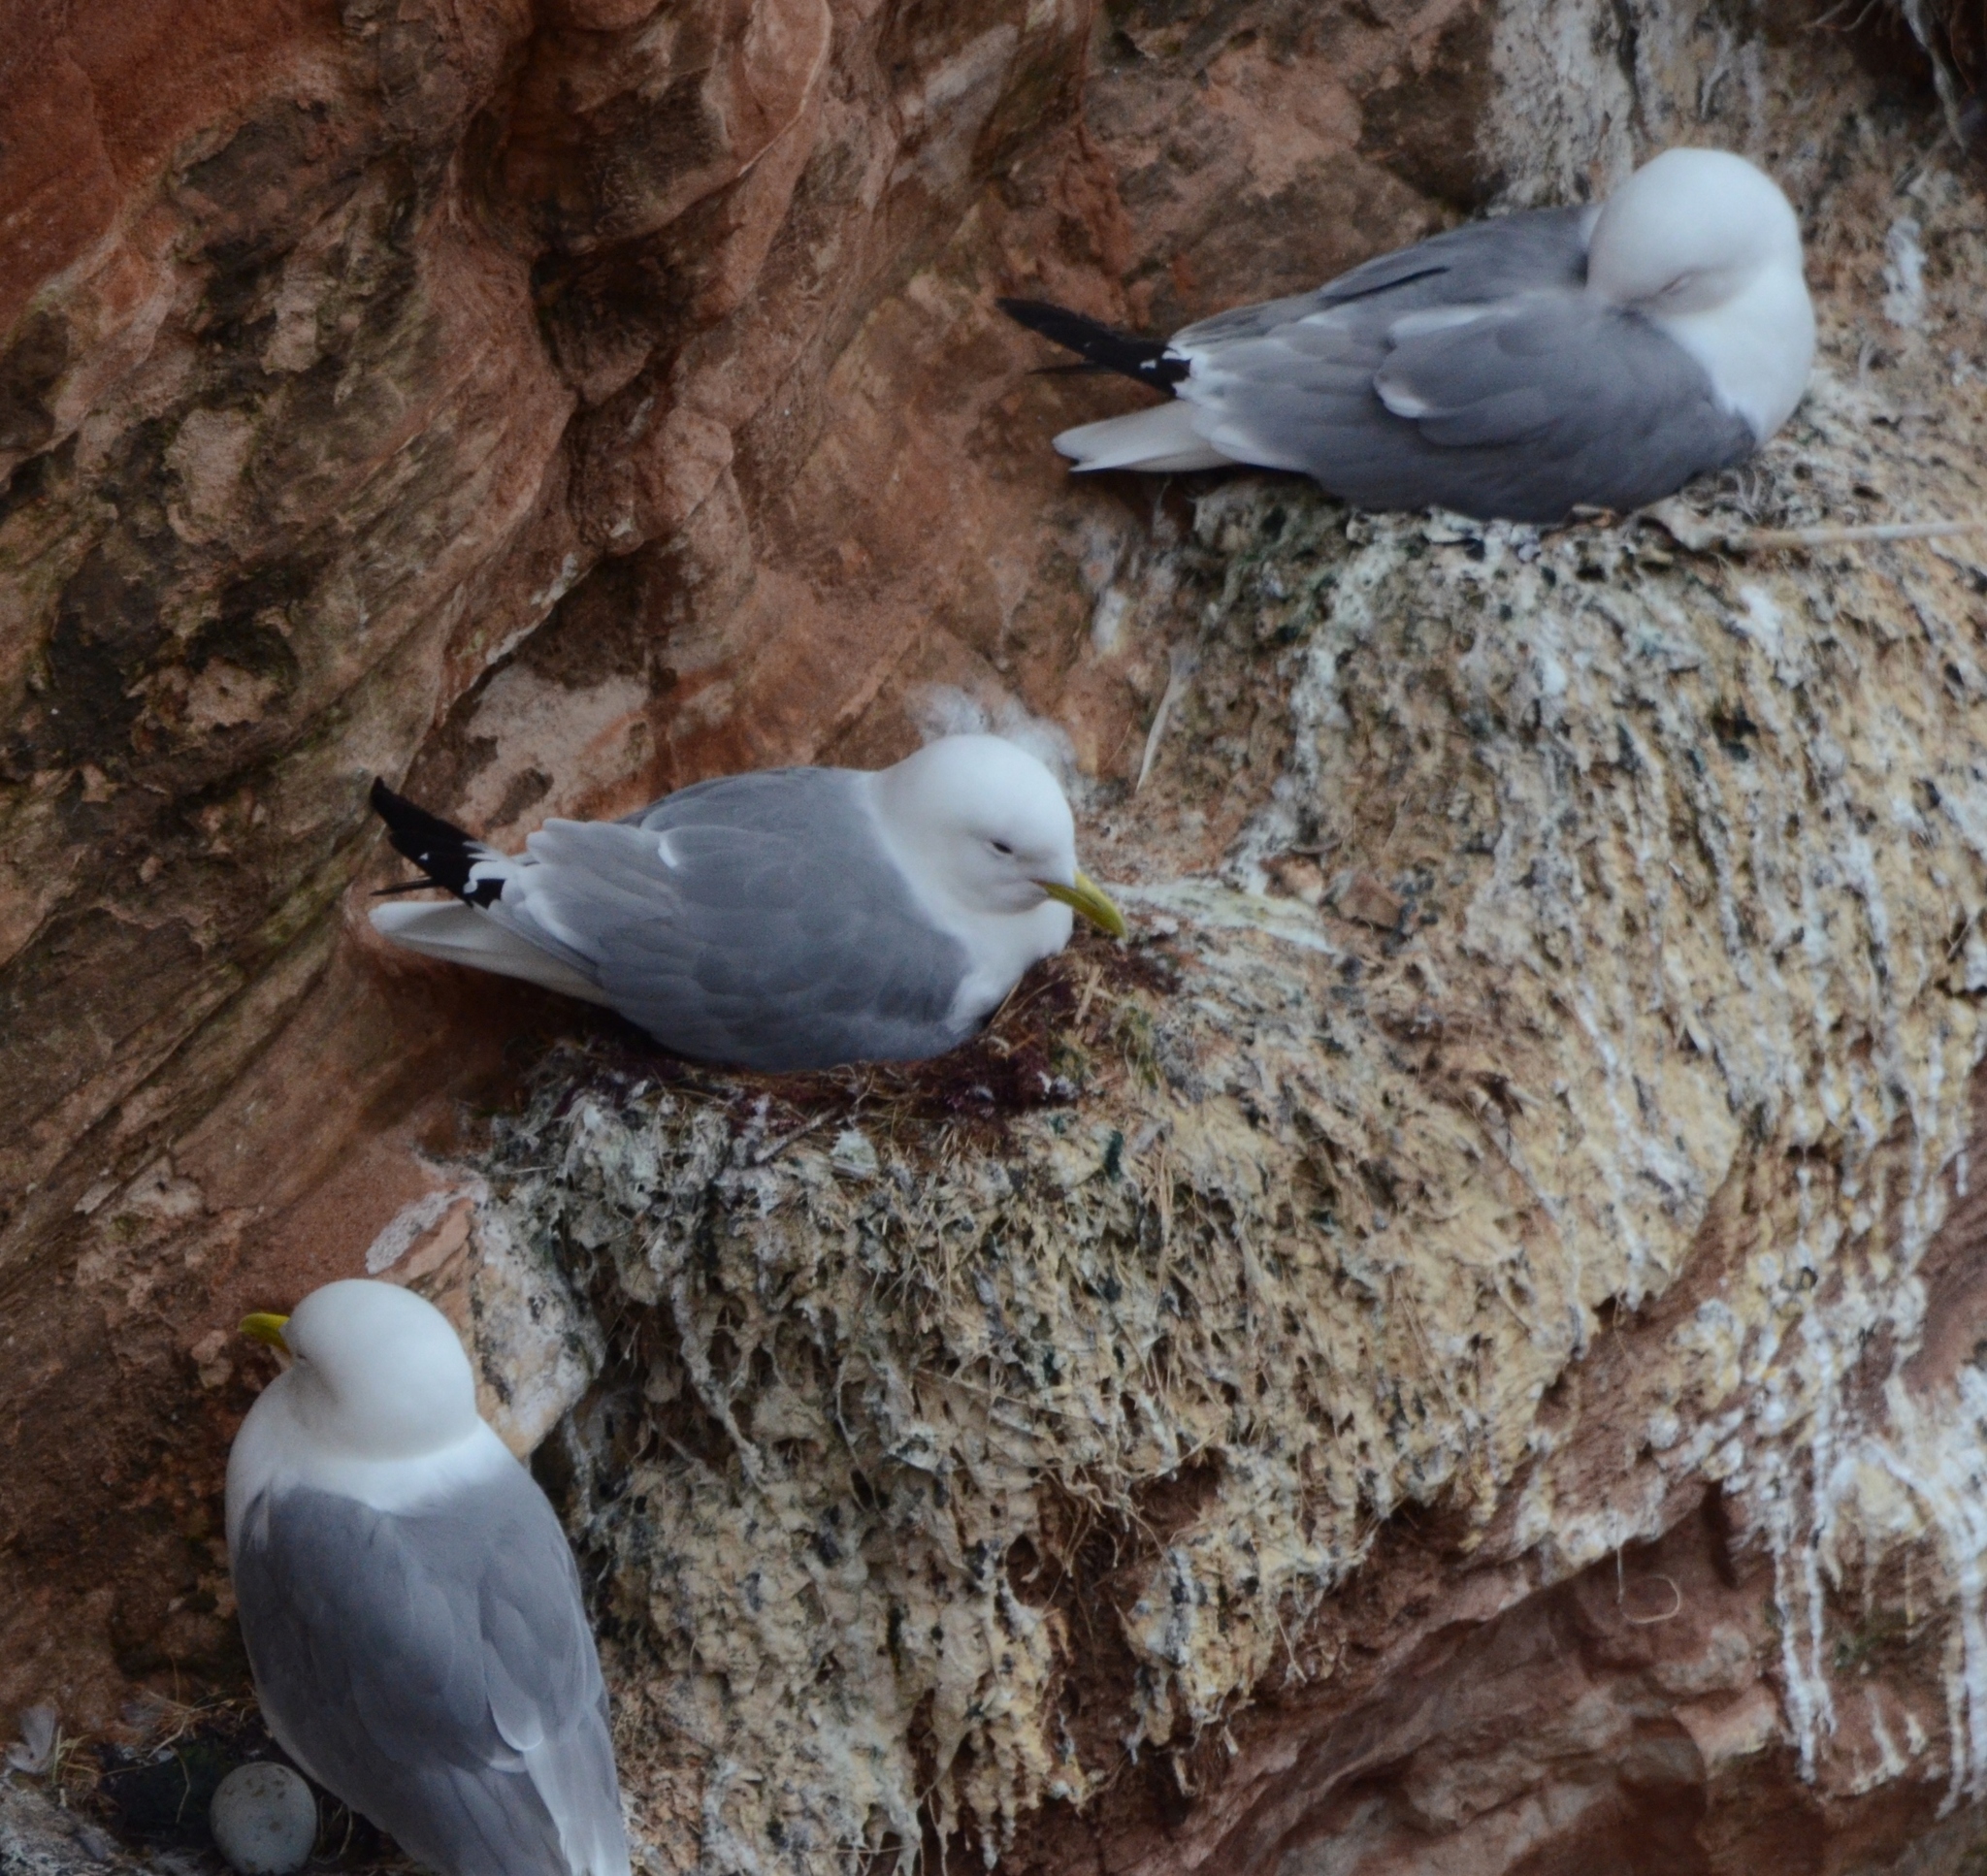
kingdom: Animalia
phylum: Chordata
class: Aves
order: Charadriiformes
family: Laridae
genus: Rissa
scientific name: Rissa tridactyla
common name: Black-legged kittiwake
